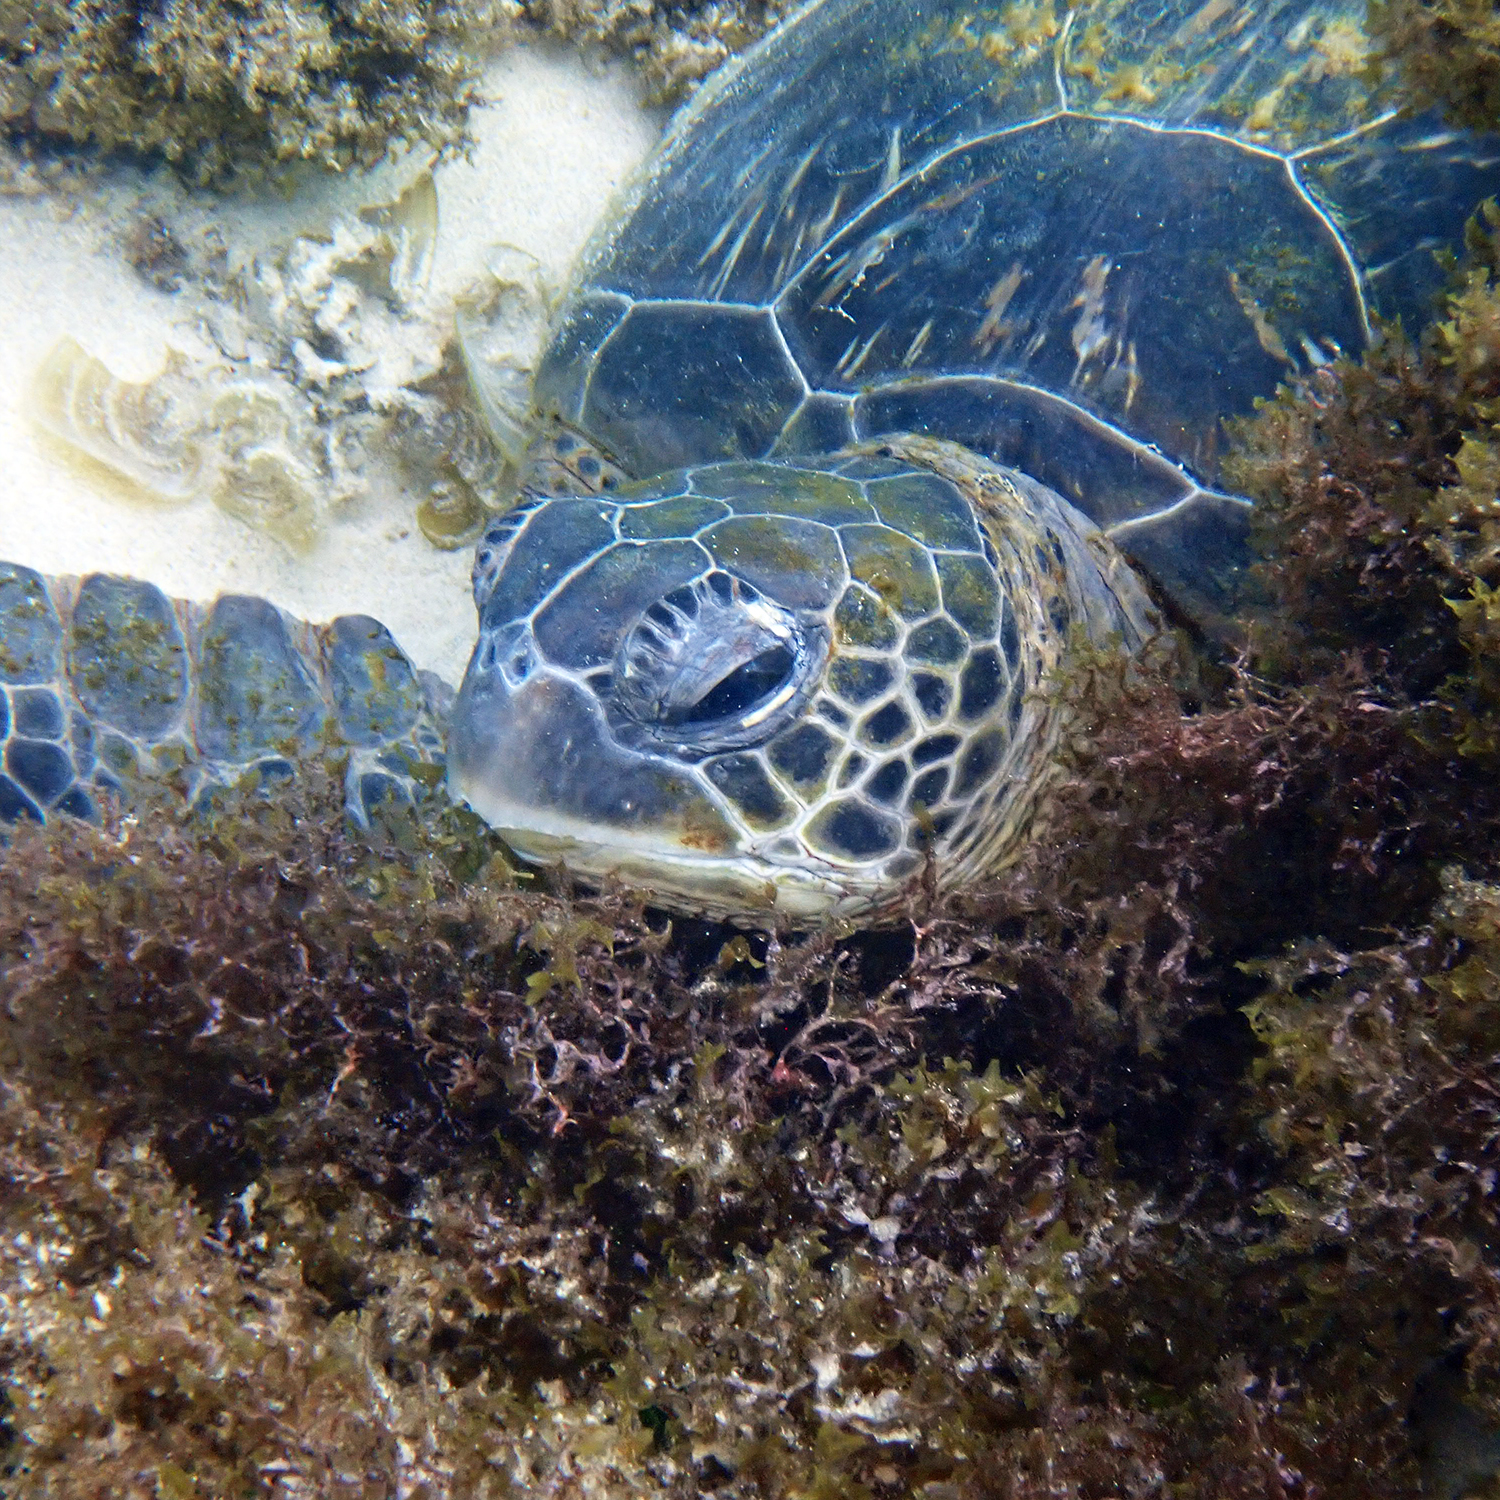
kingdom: Animalia
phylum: Chordata
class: Testudines
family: Cheloniidae
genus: Chelonia
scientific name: Chelonia mydas
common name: Green turtle
